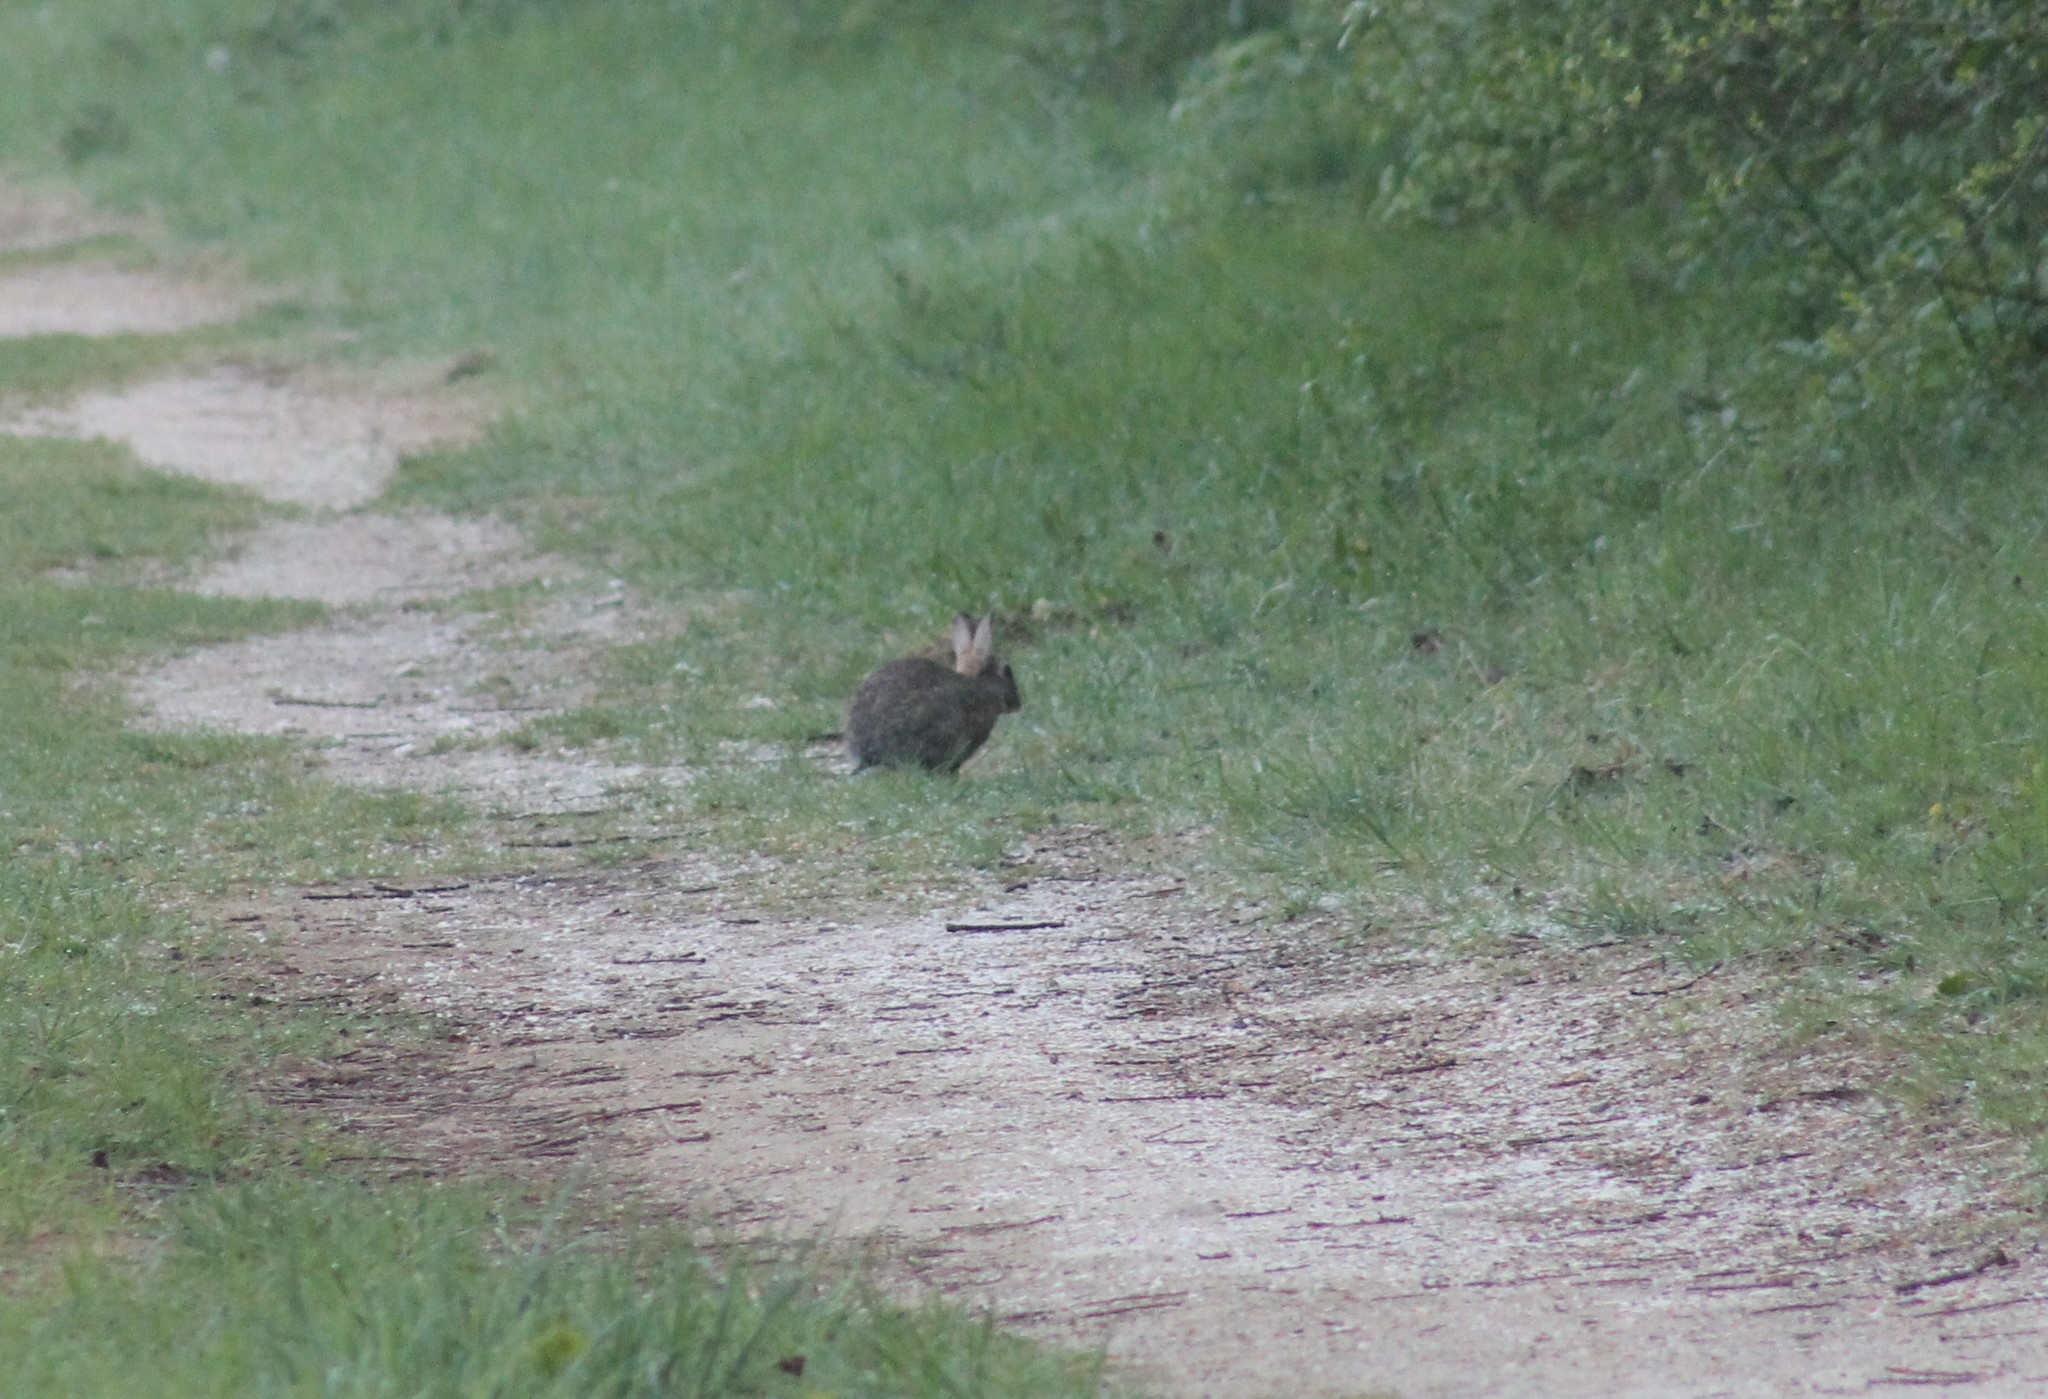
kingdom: Animalia
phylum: Chordata
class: Mammalia
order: Lagomorpha
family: Leporidae
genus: Oryctolagus
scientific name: Oryctolagus cuniculus
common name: European rabbit
